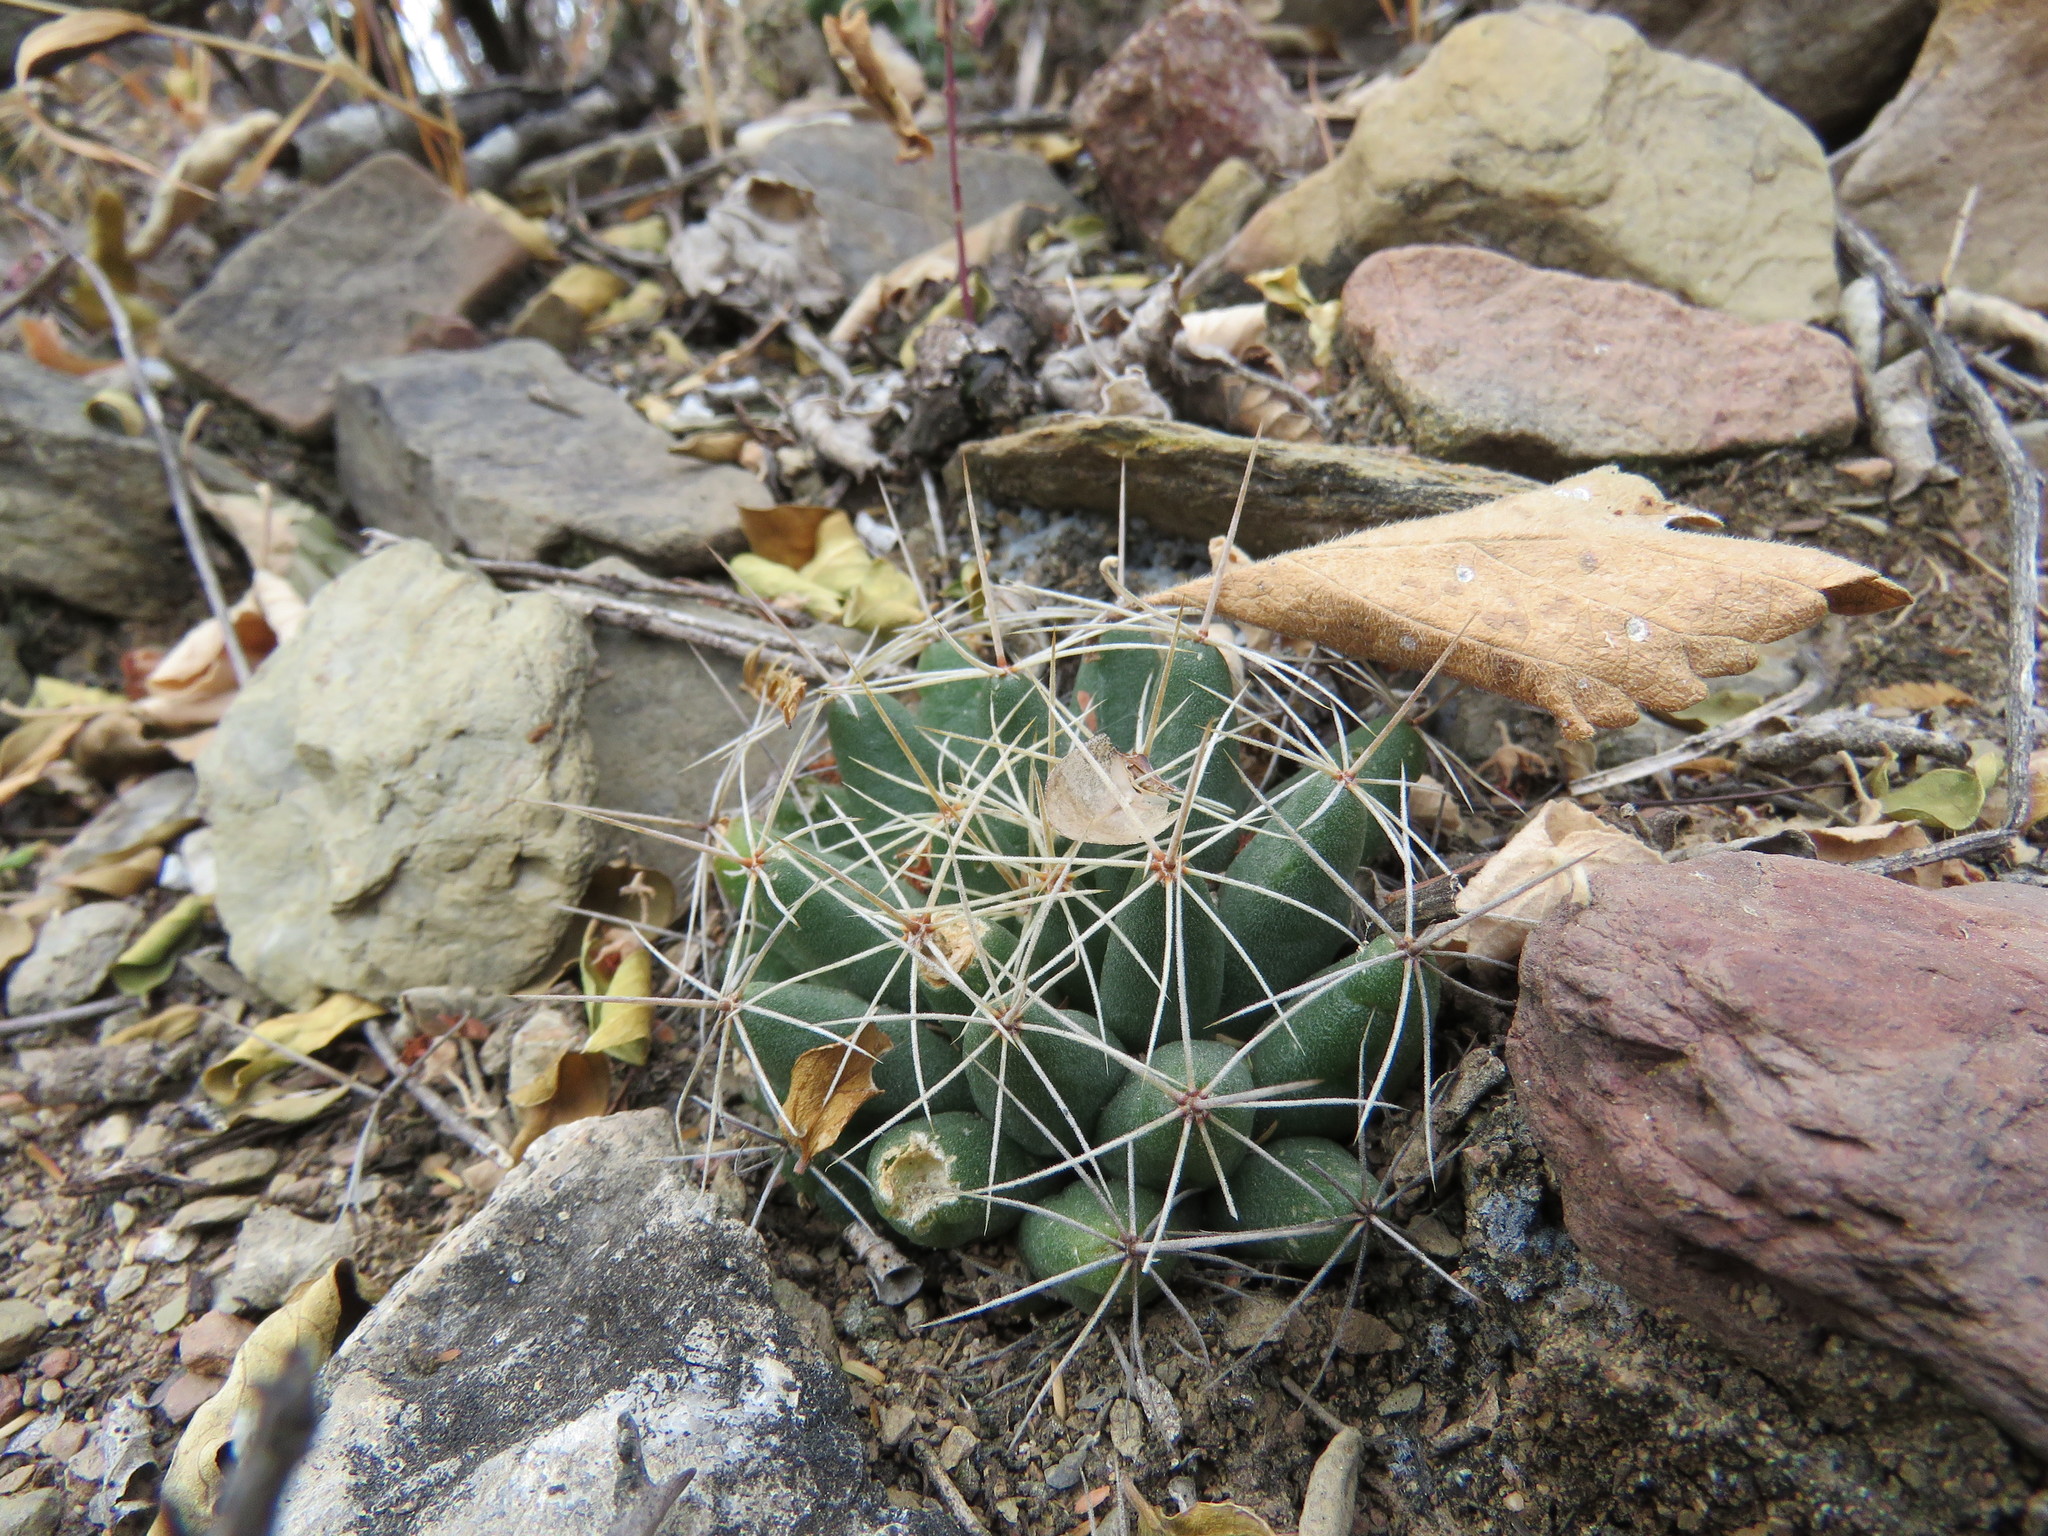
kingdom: Plantae
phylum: Tracheophyta
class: Magnoliopsida
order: Caryophyllales
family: Cactaceae
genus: Mammillaria
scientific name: Mammillaria longimamma
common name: Pineapple cactus
